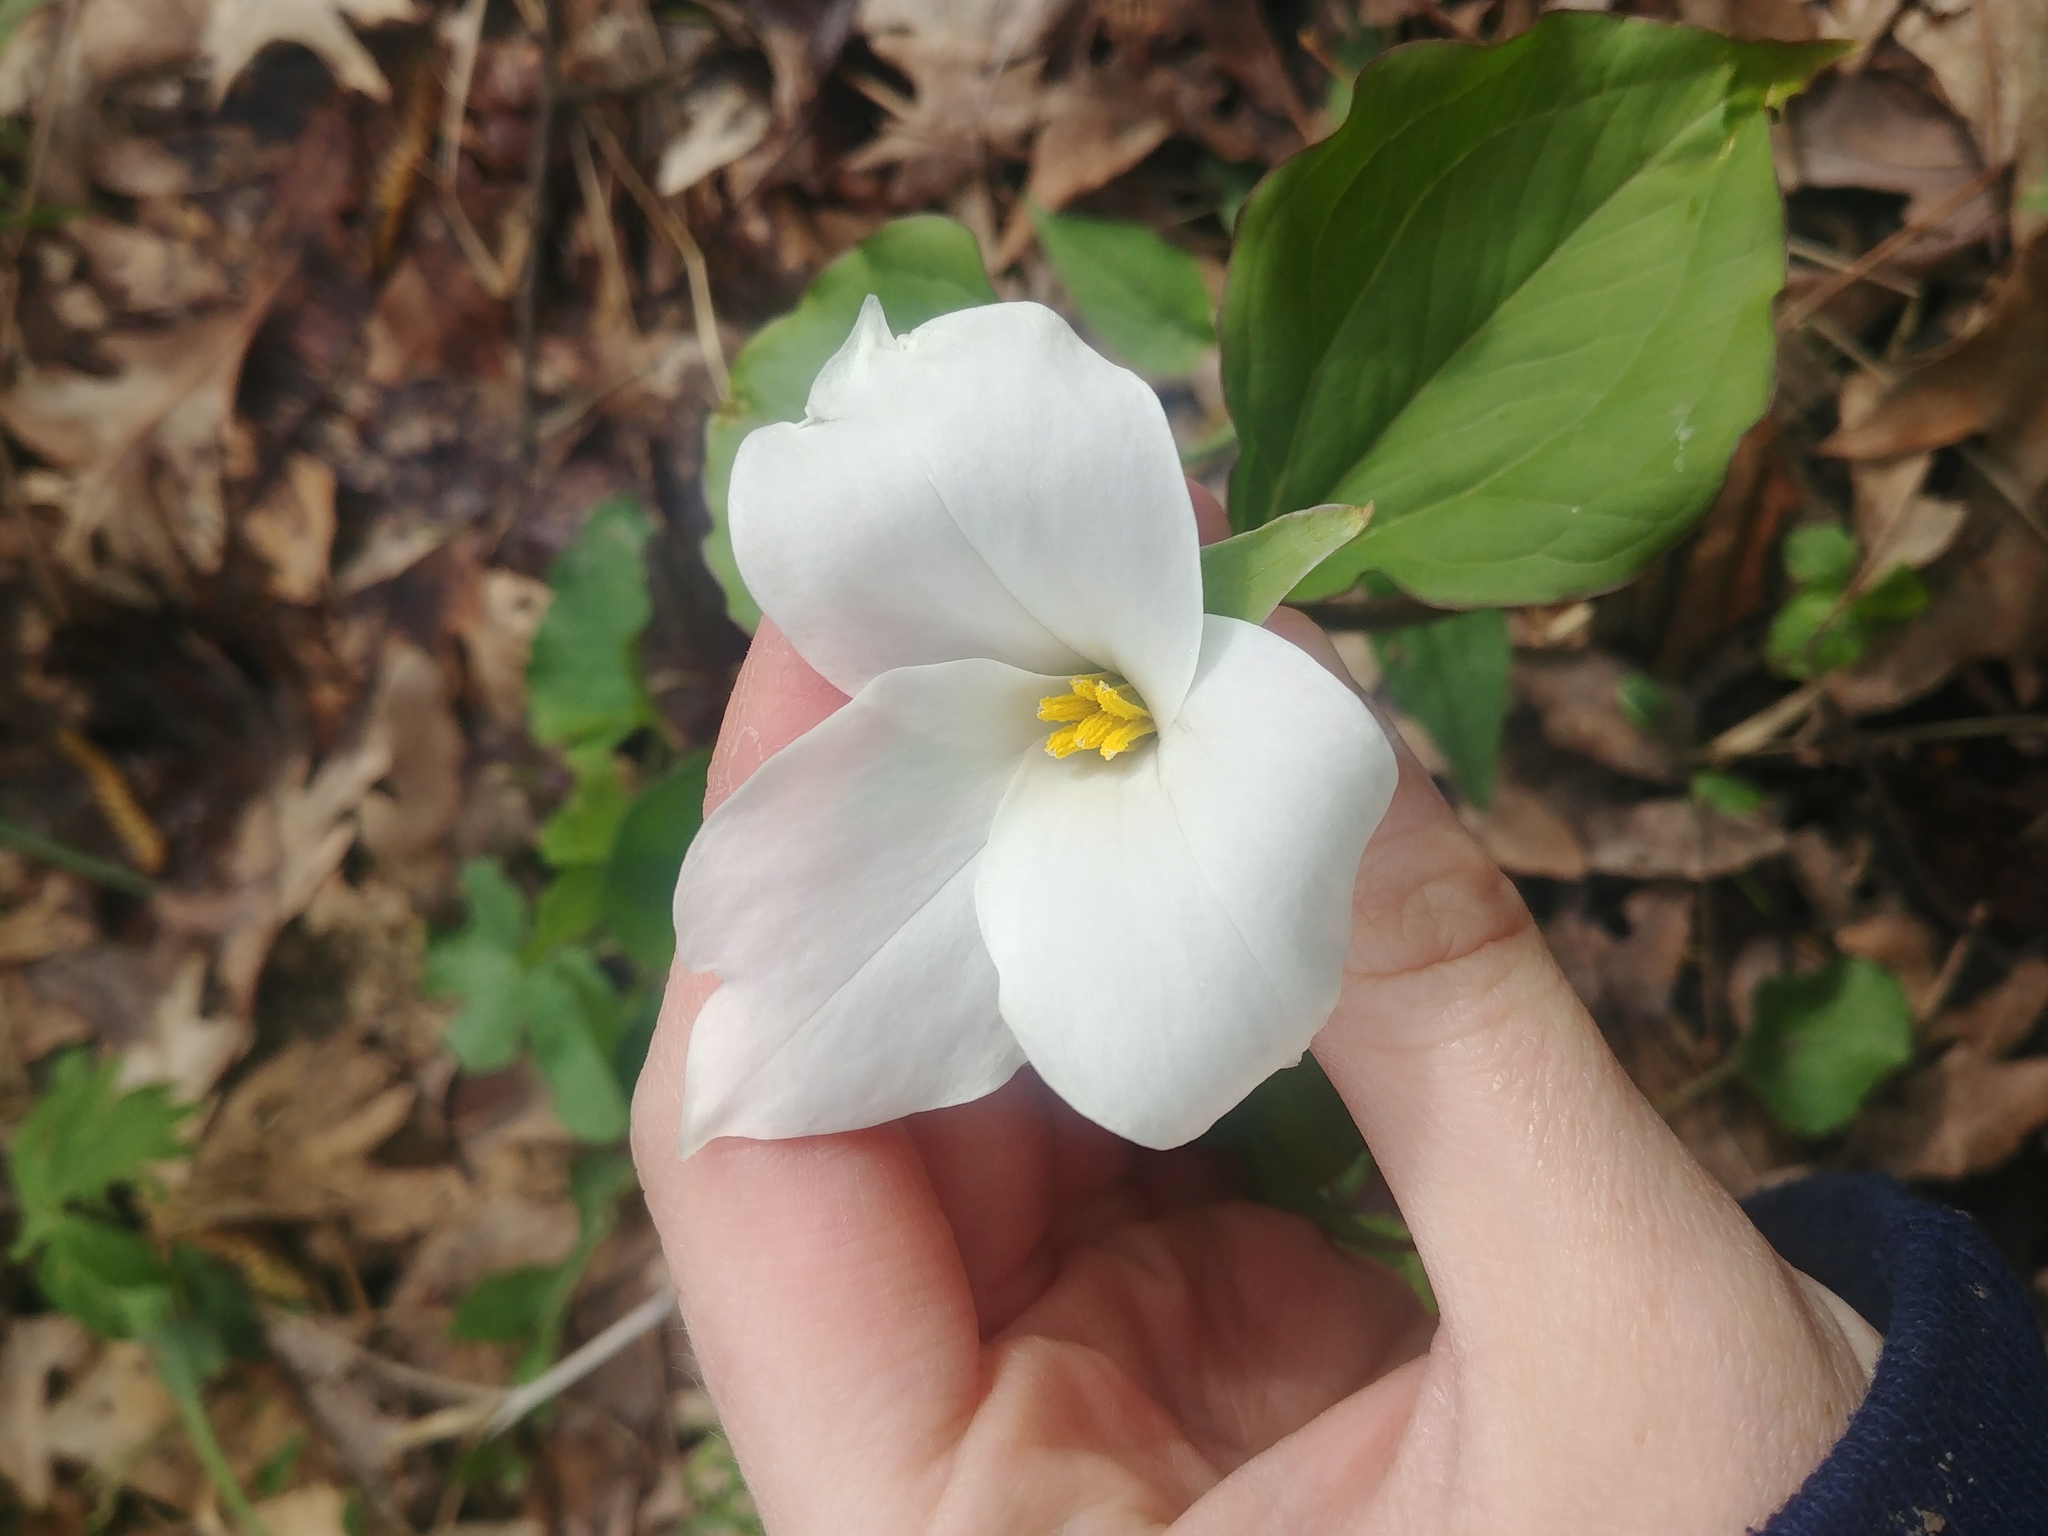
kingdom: Plantae
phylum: Tracheophyta
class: Liliopsida
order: Liliales
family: Melanthiaceae
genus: Trillium
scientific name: Trillium grandiflorum
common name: Great white trillium
